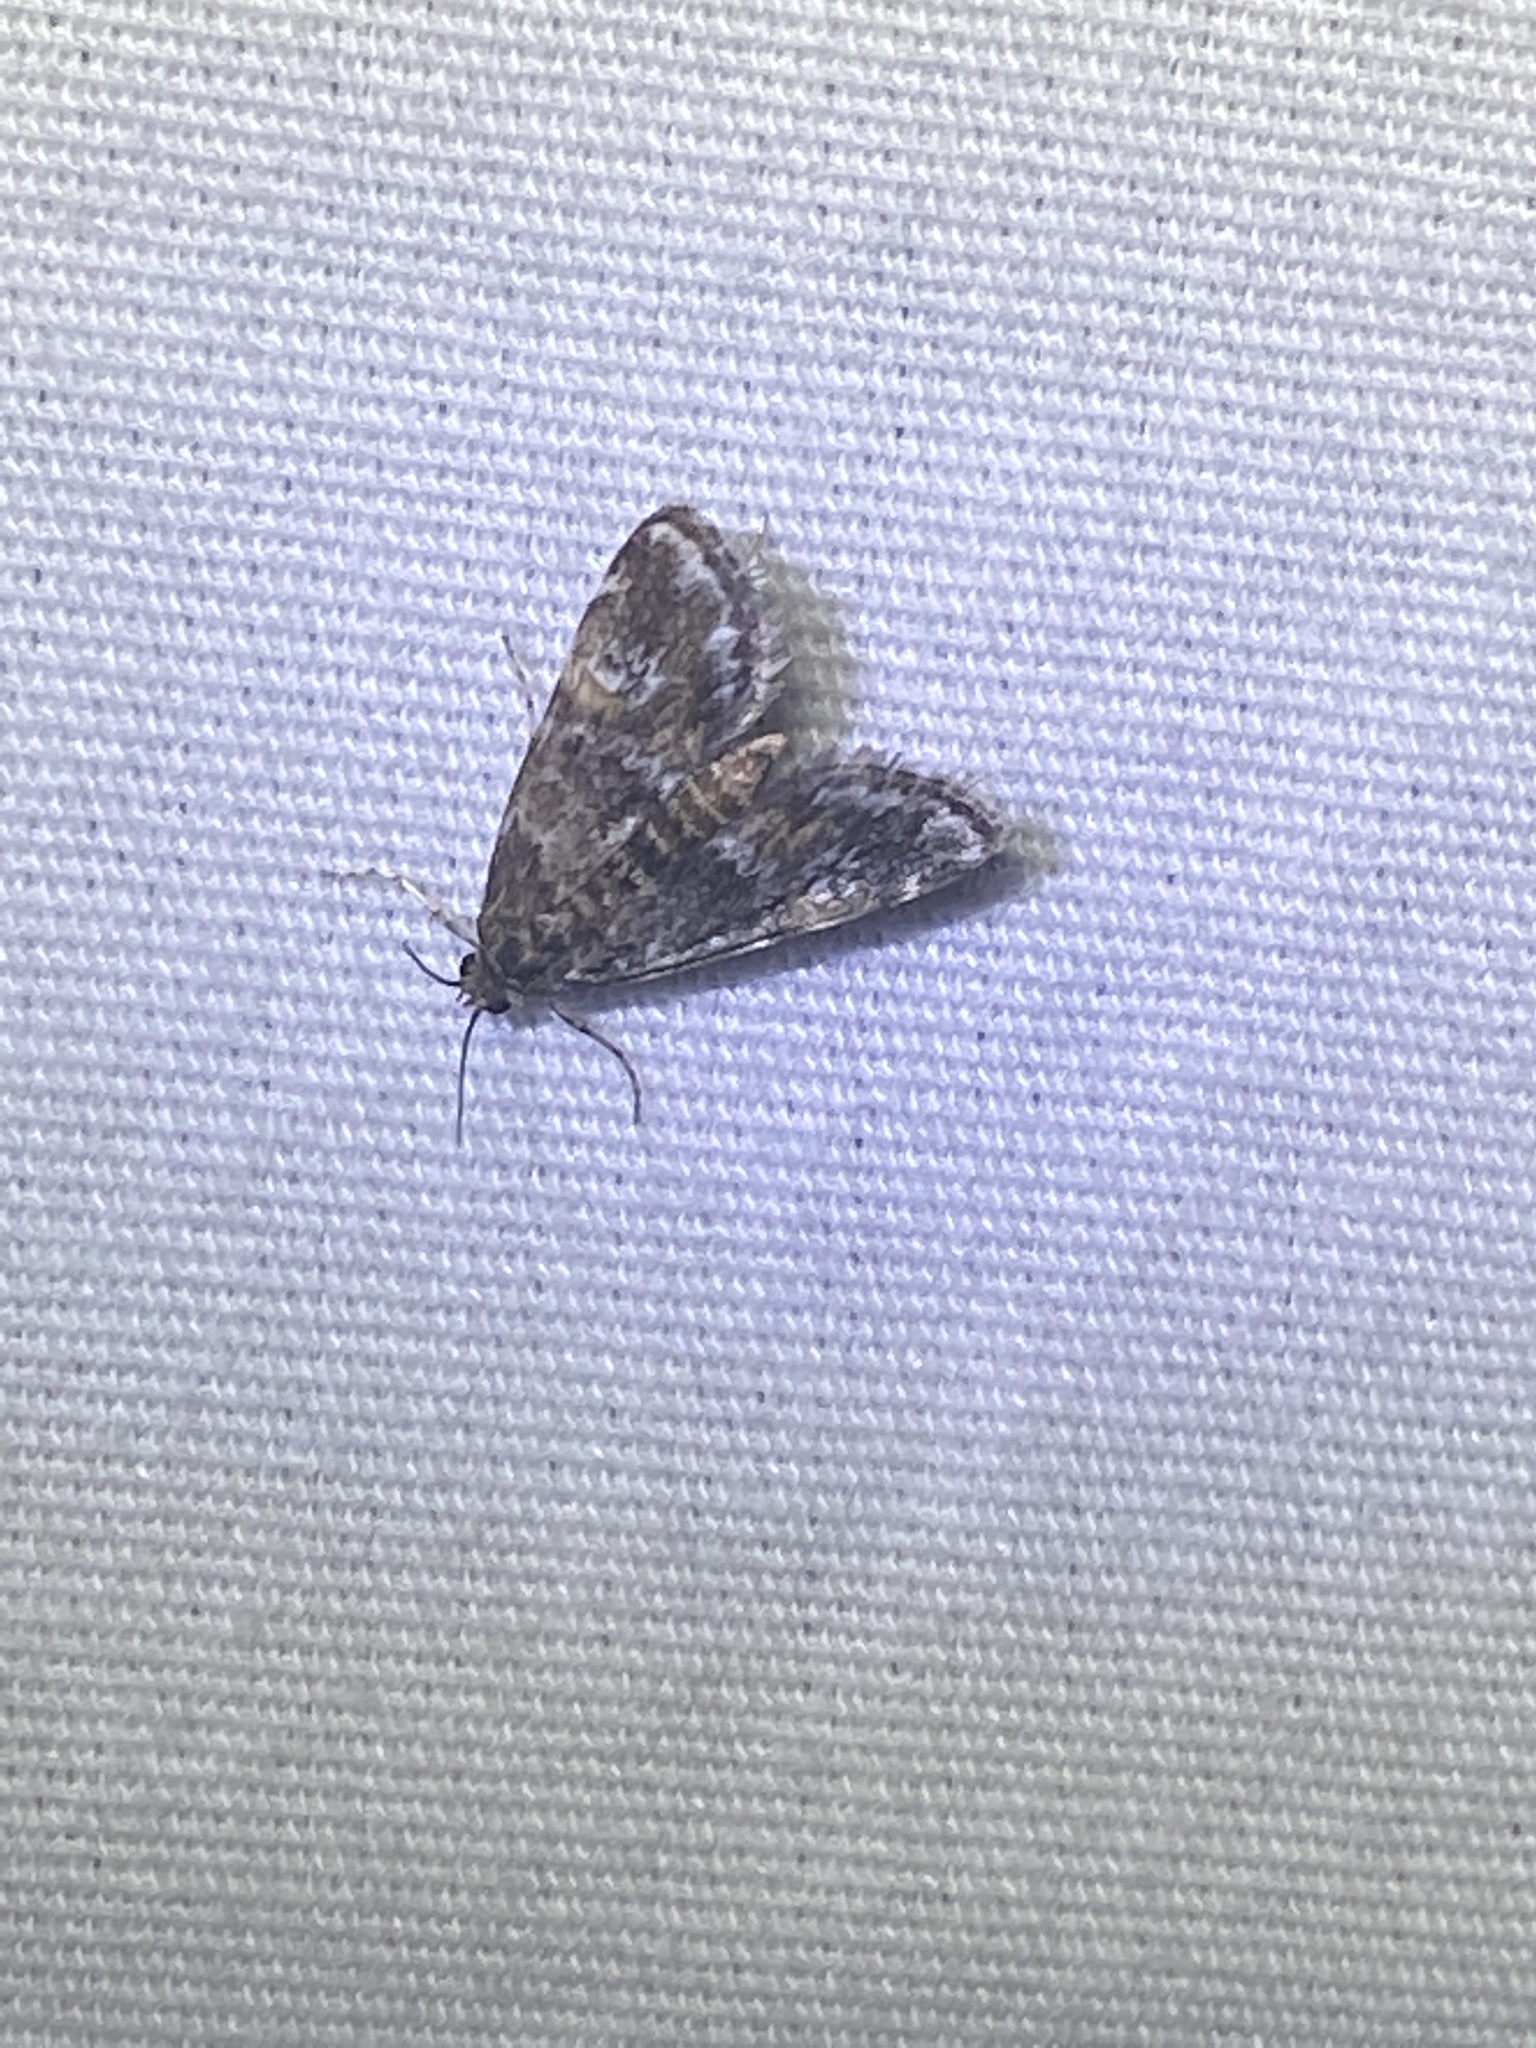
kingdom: Animalia
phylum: Arthropoda
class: Insecta
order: Lepidoptera
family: Crambidae
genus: Elophila
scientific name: Elophila obliteralis
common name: Waterlily leafcutter moth
